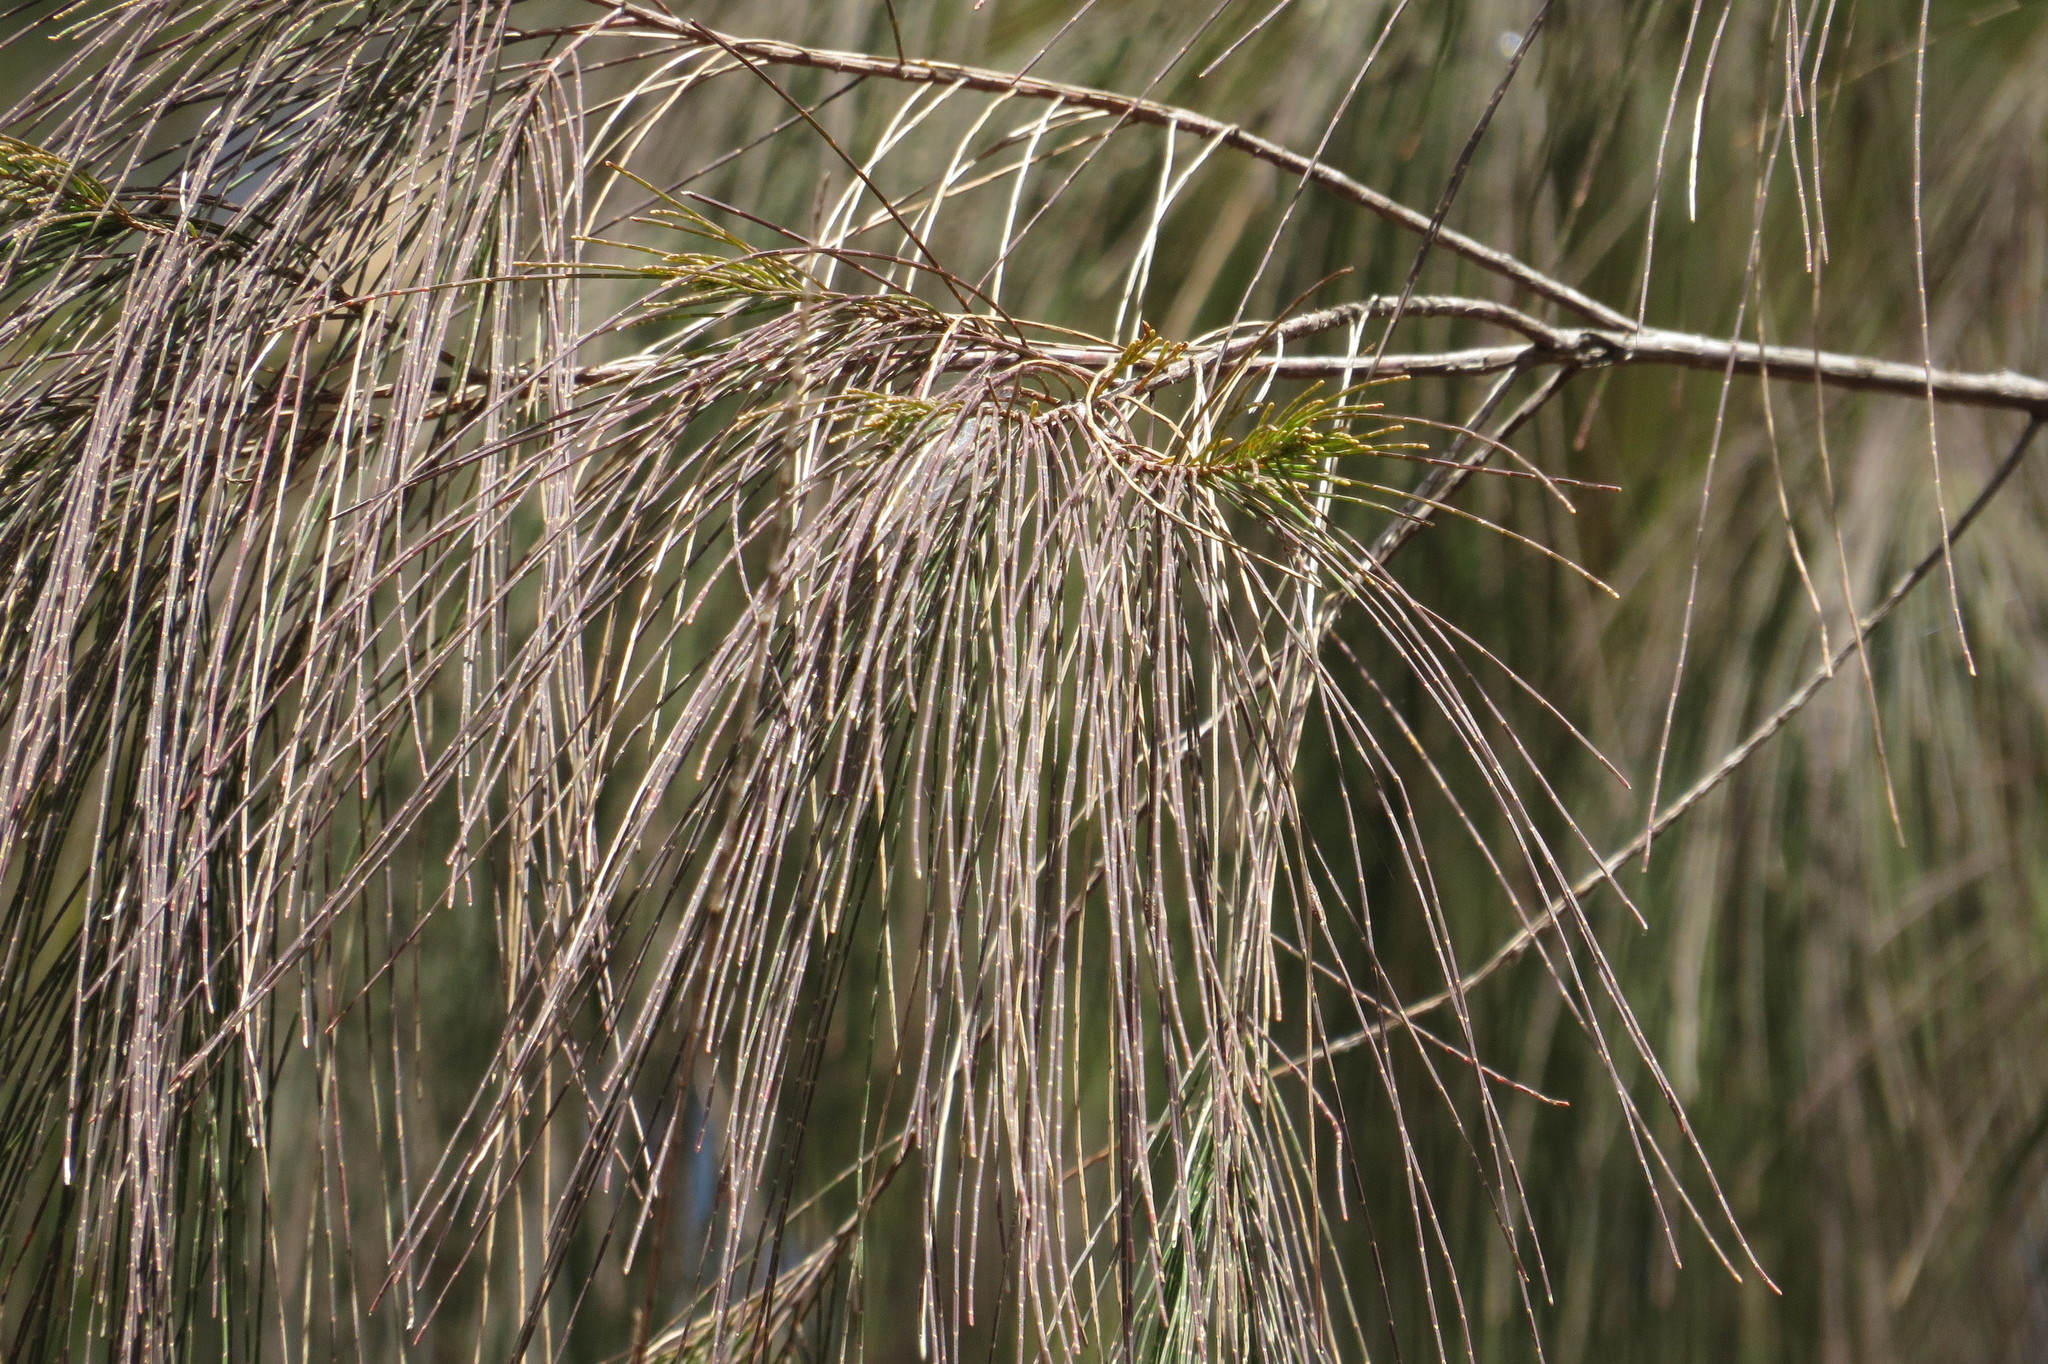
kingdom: Plantae
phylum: Tracheophyta
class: Magnoliopsida
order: Fagales
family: Casuarinaceae
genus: Allocasuarina
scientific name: Allocasuarina torulosa
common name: Forest-oak
